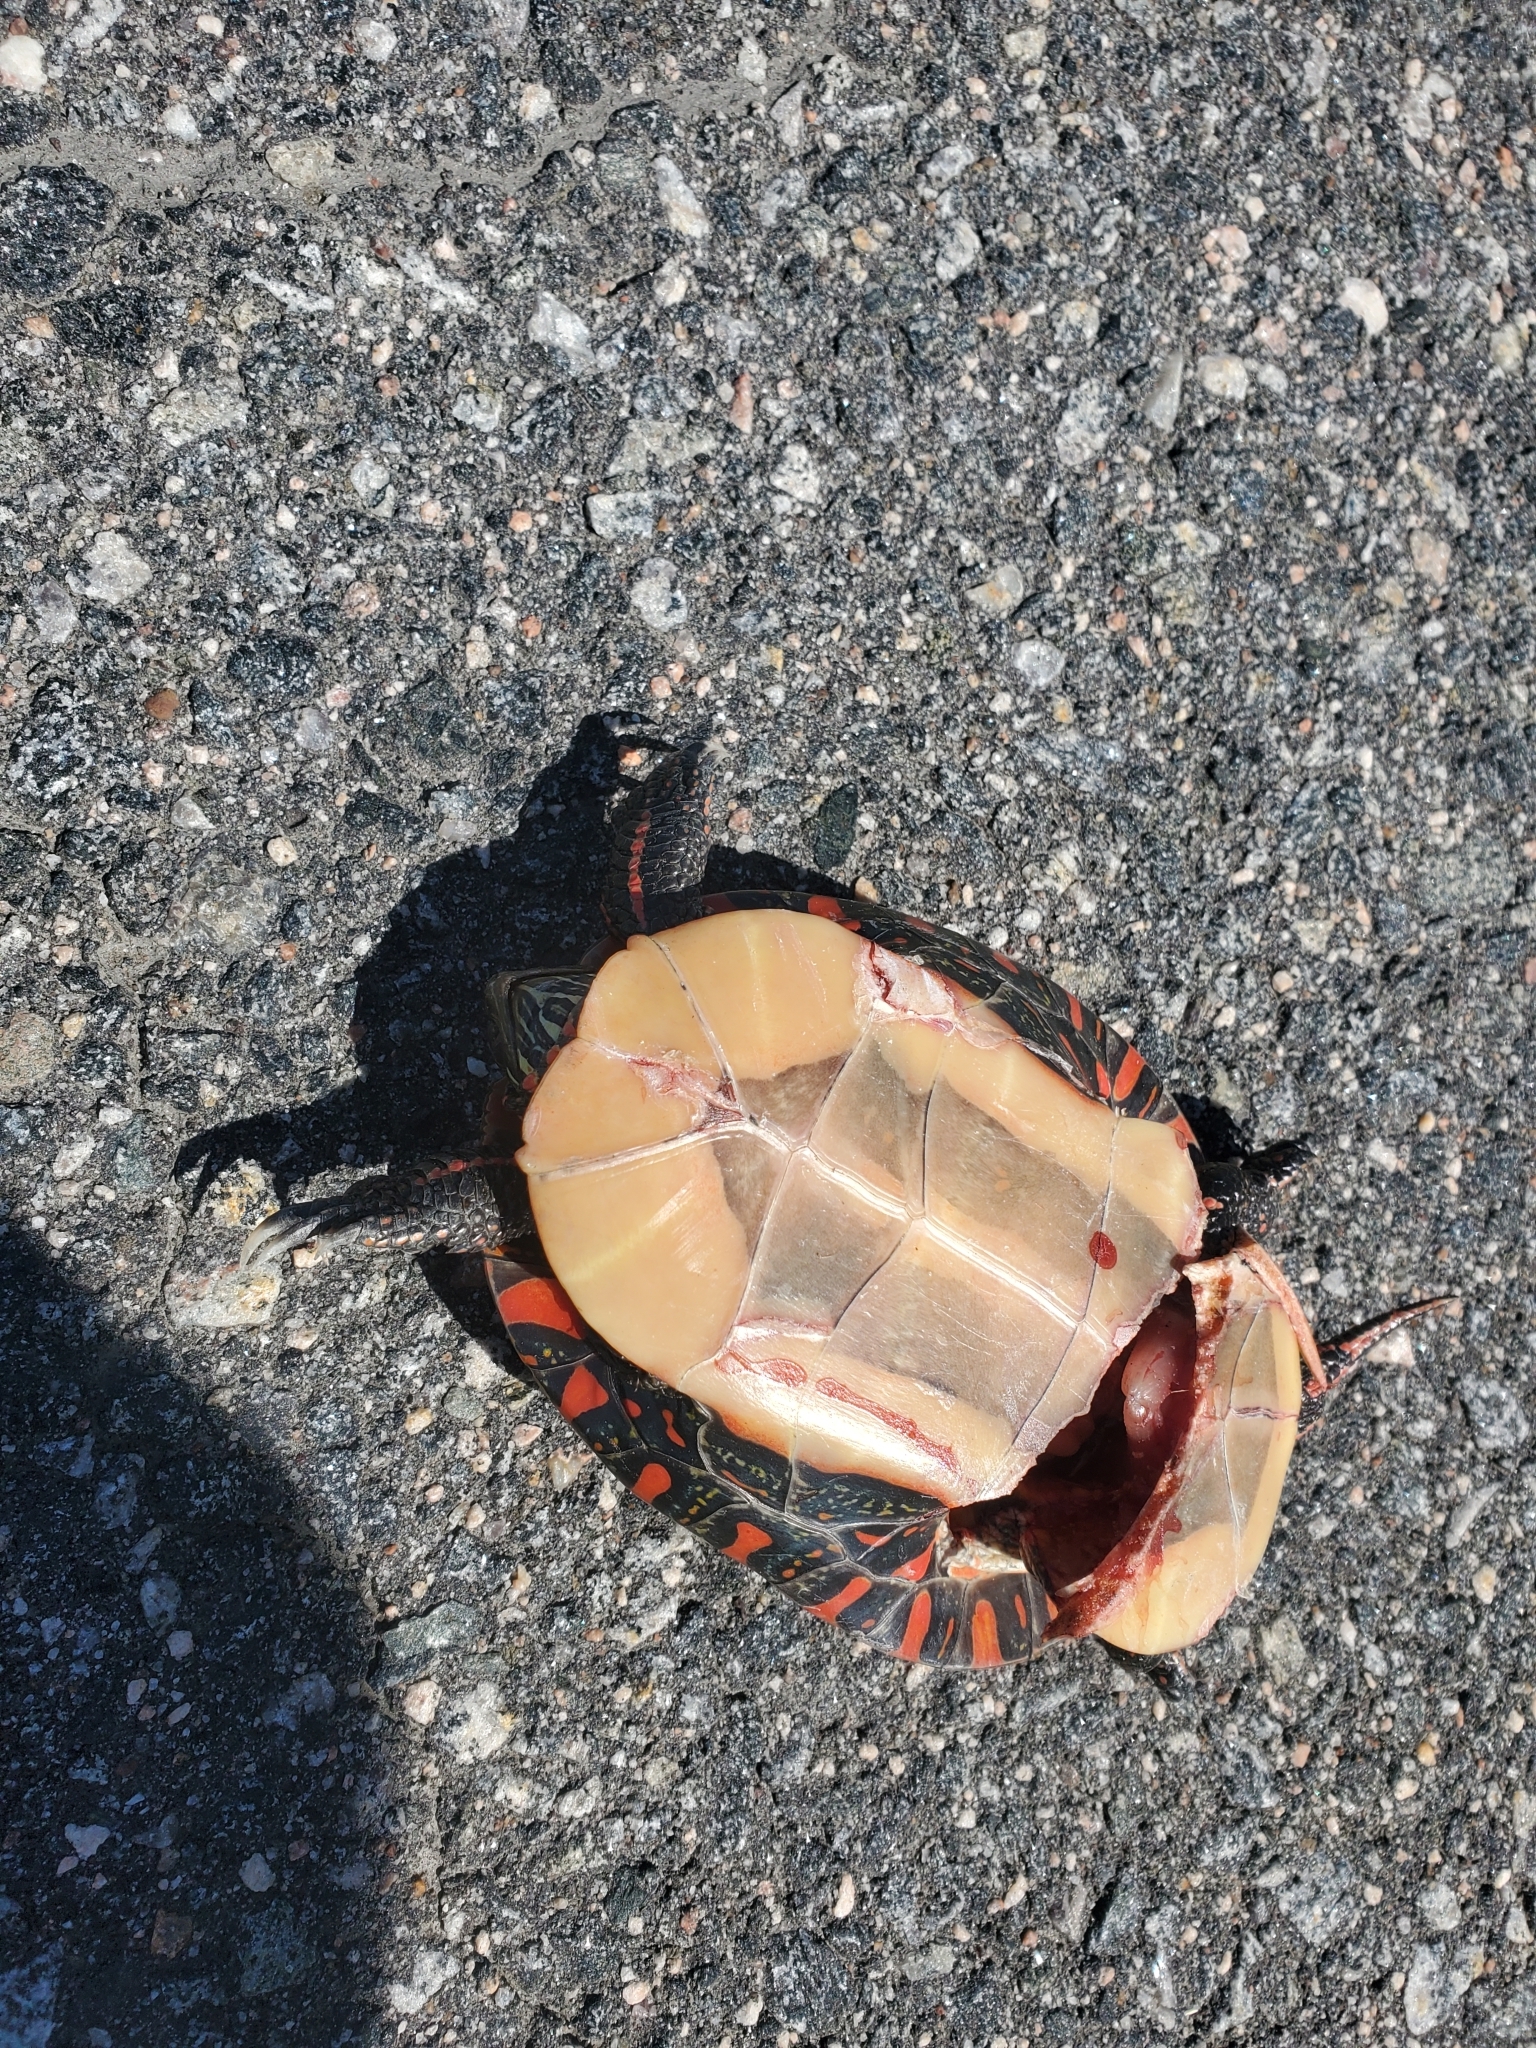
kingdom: Animalia
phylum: Chordata
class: Testudines
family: Emydidae
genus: Chrysemys
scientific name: Chrysemys picta
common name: Painted turtle
